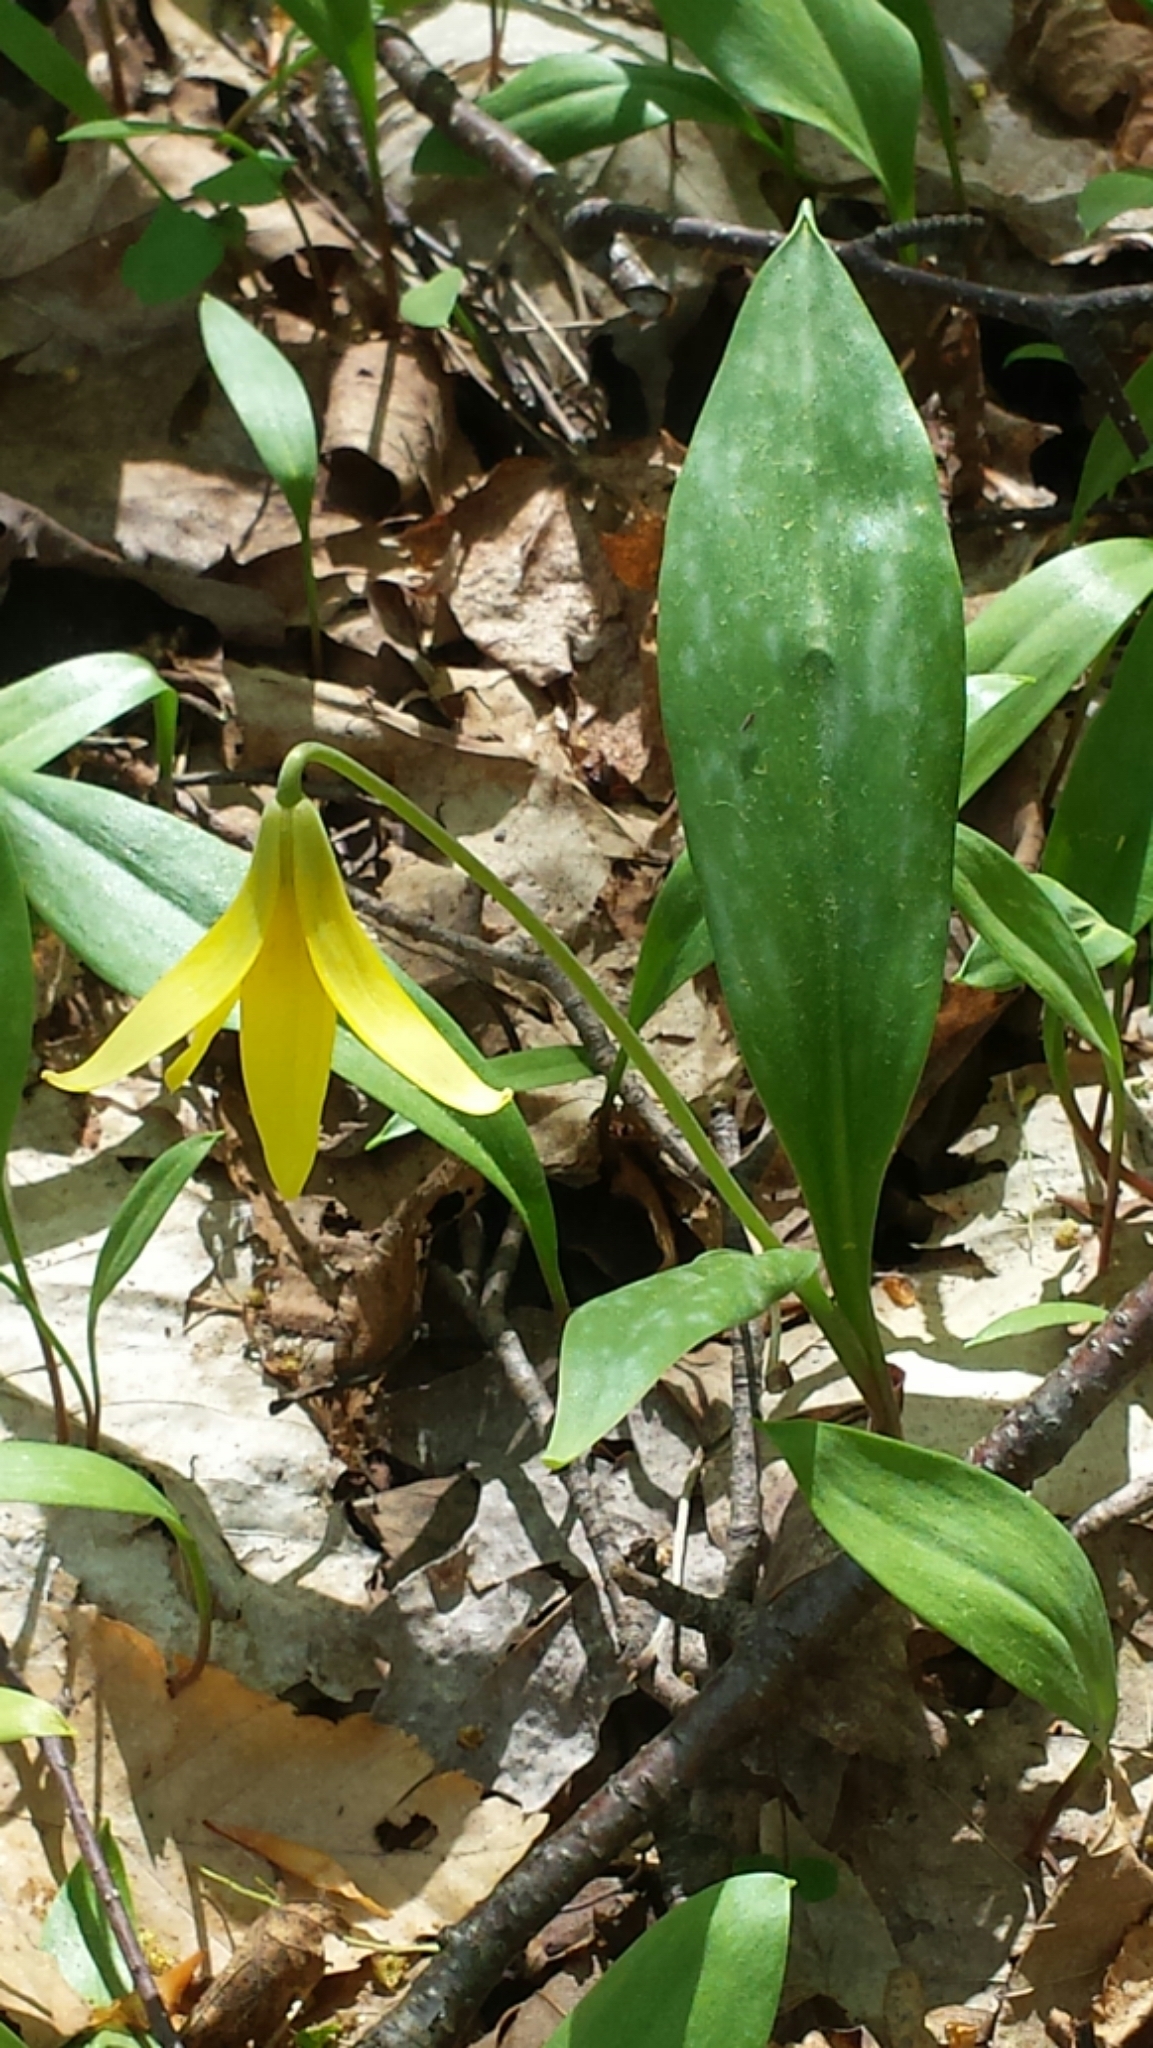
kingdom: Plantae
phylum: Tracheophyta
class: Liliopsida
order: Liliales
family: Liliaceae
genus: Erythronium
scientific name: Erythronium americanum
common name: Yellow adder's-tongue
